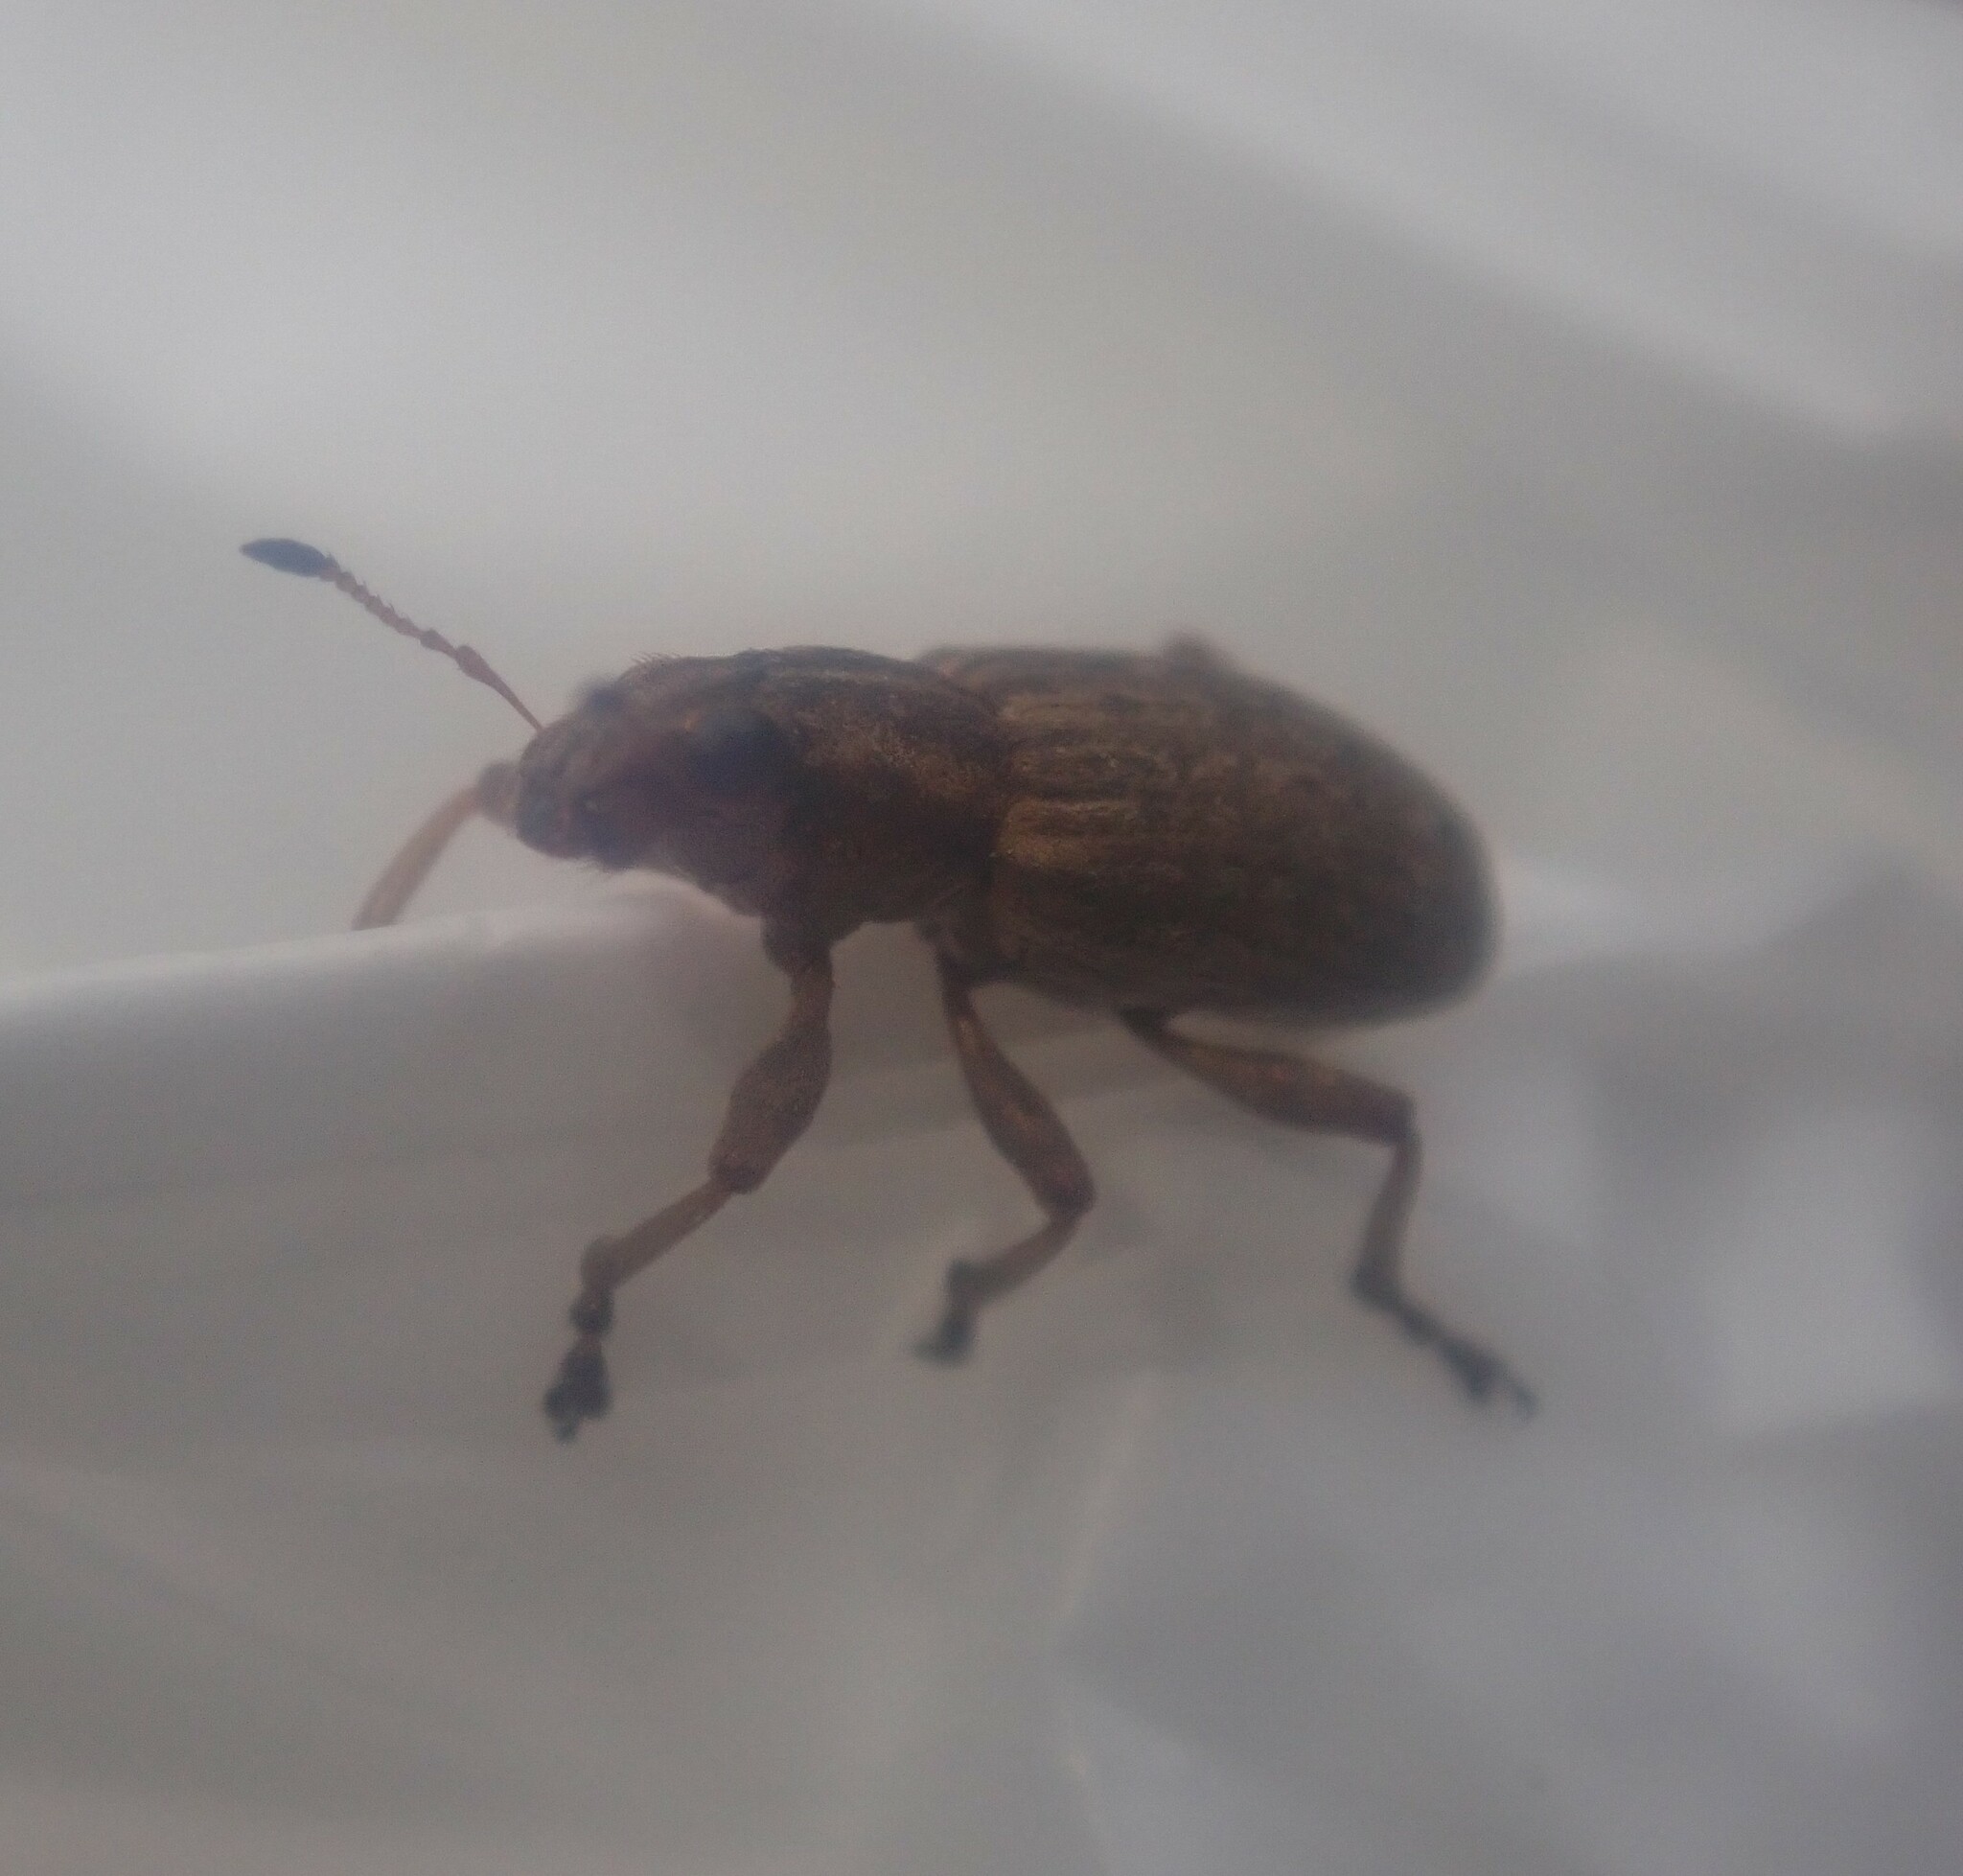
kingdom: Animalia
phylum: Arthropoda
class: Insecta
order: Coleoptera
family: Curculionidae
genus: Sitona
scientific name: Sitona cinnamomeus
